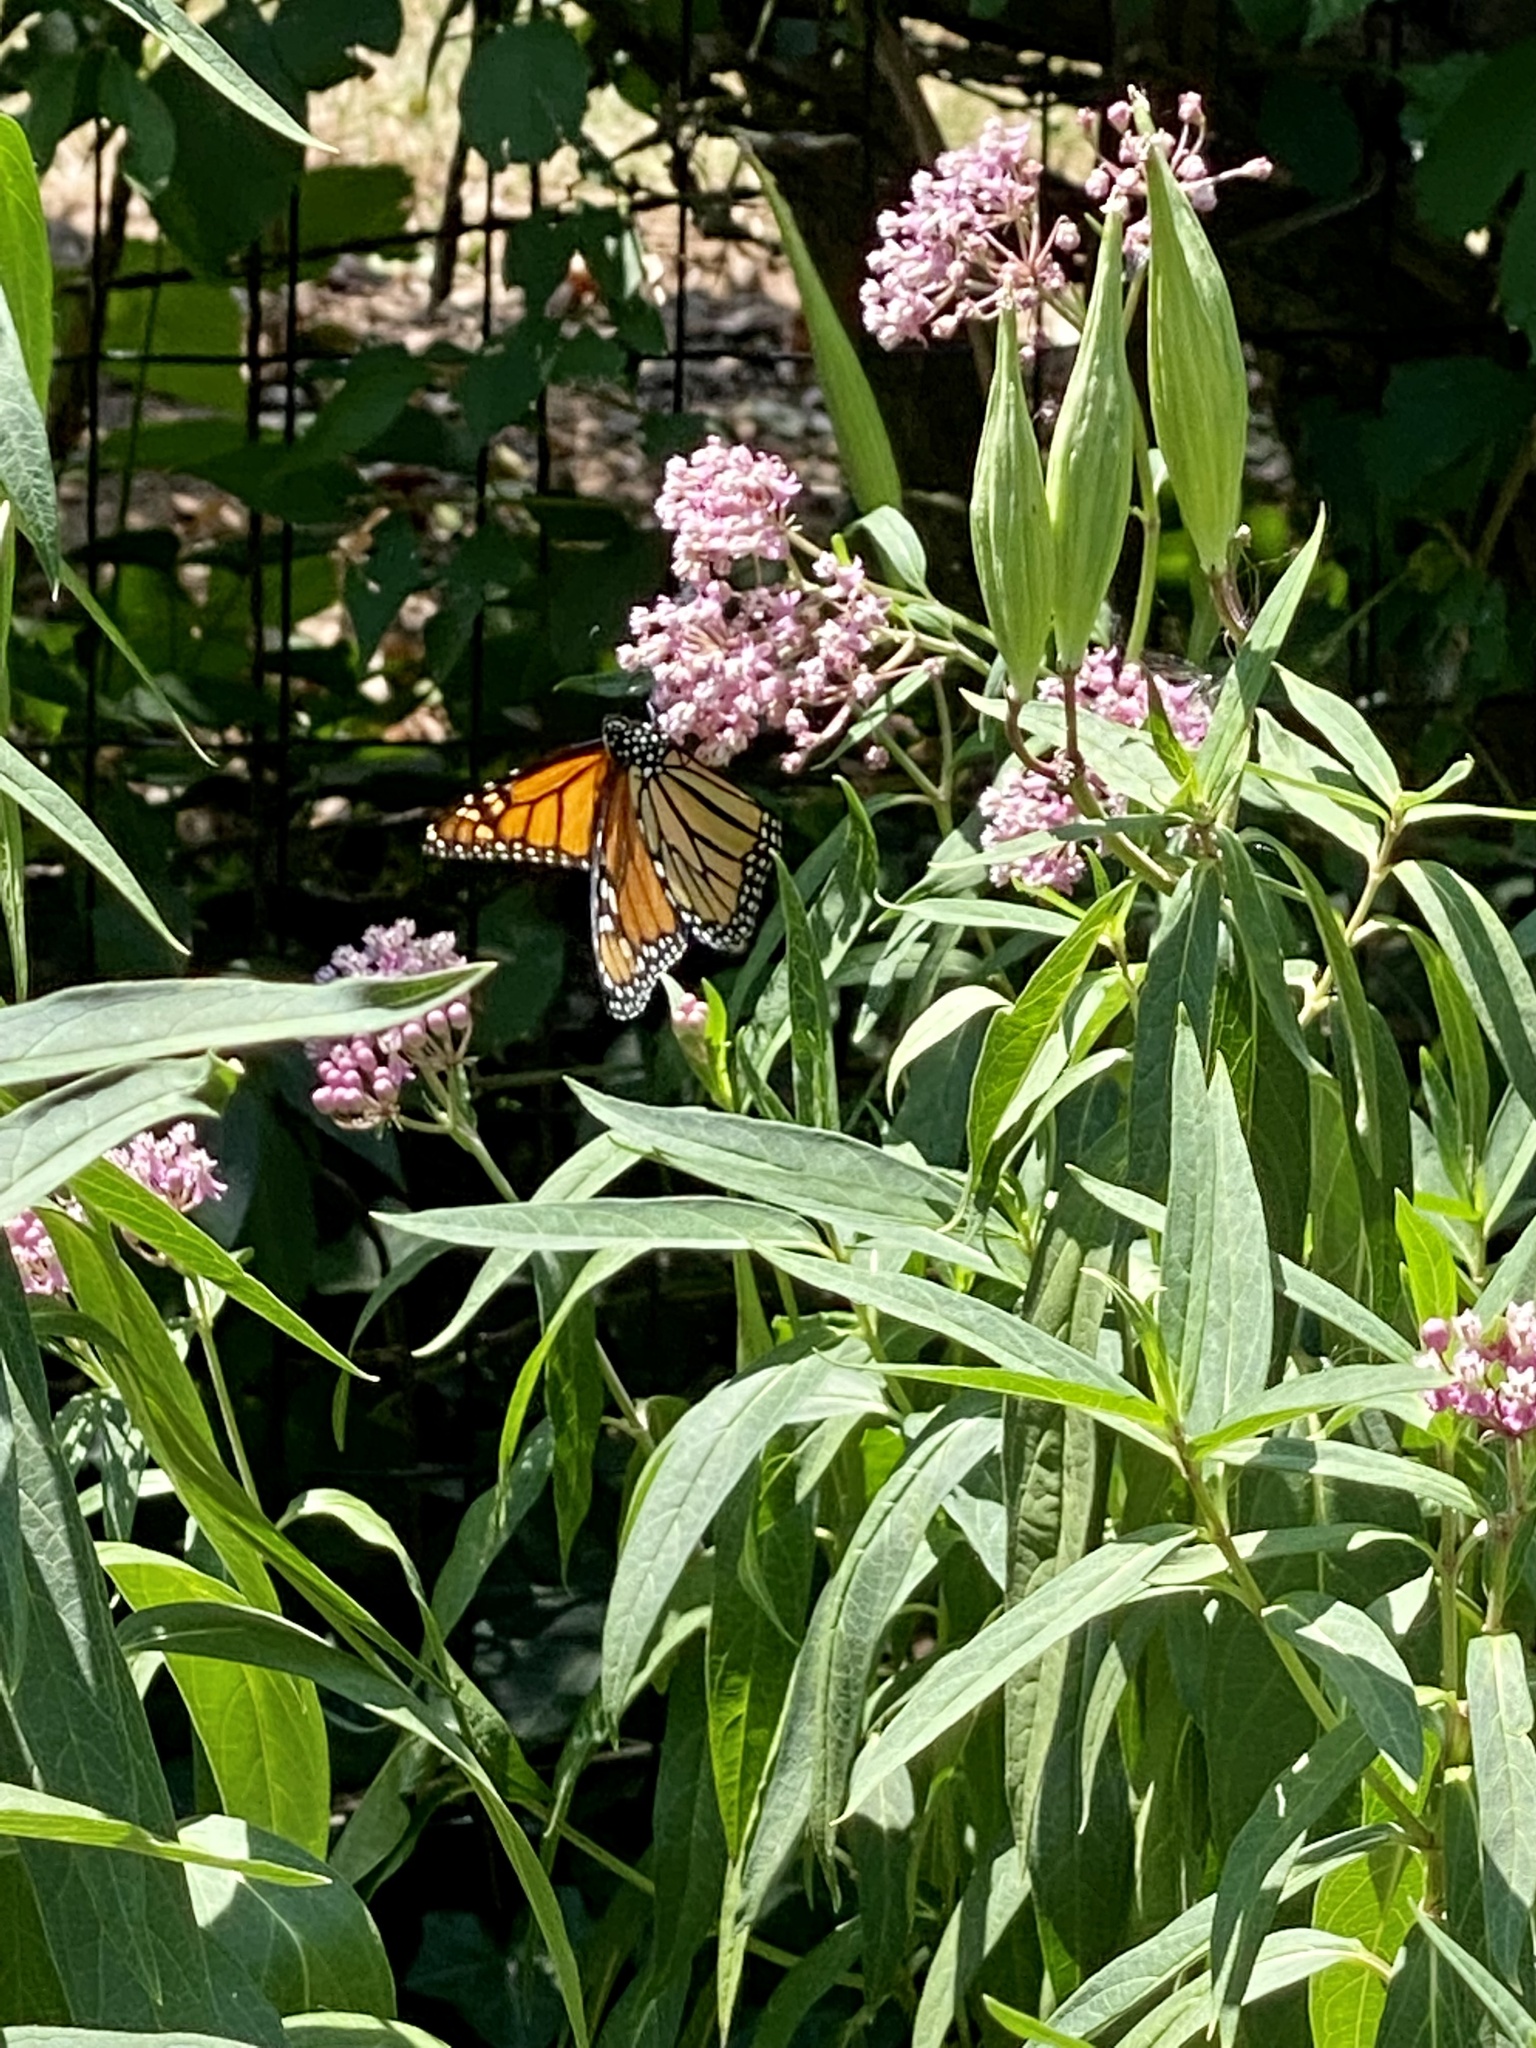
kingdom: Animalia
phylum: Arthropoda
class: Insecta
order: Lepidoptera
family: Nymphalidae
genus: Danaus
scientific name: Danaus plexippus
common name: Monarch
